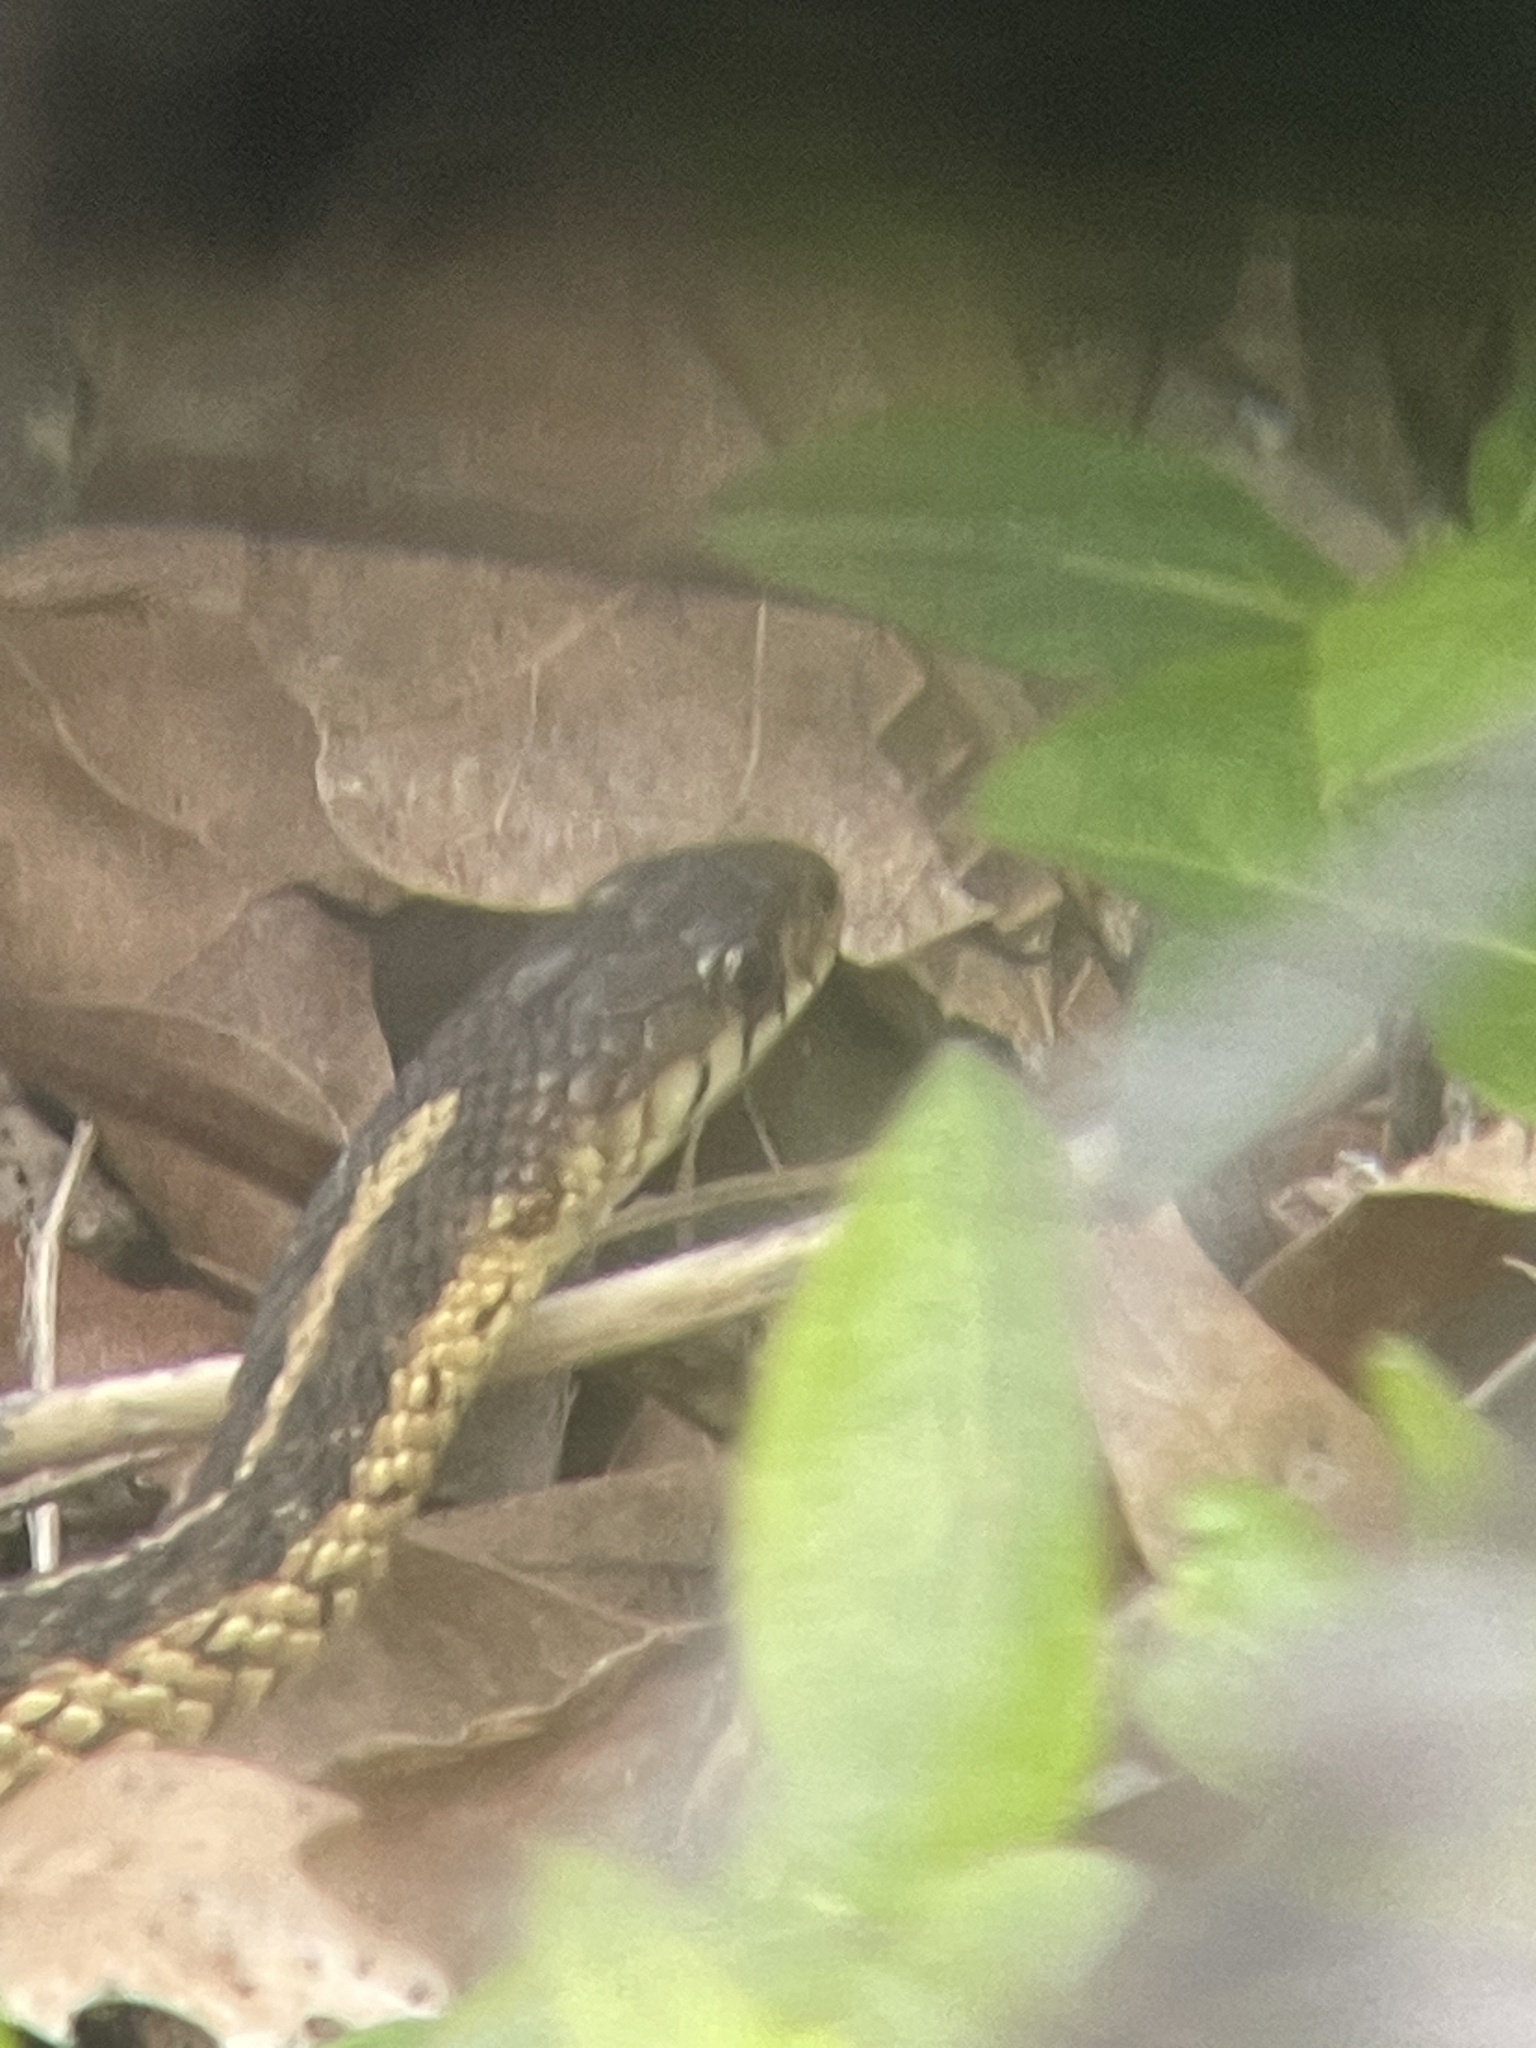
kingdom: Animalia
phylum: Chordata
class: Squamata
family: Colubridae
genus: Thamnophis
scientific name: Thamnophis sirtalis
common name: Common garter snake
